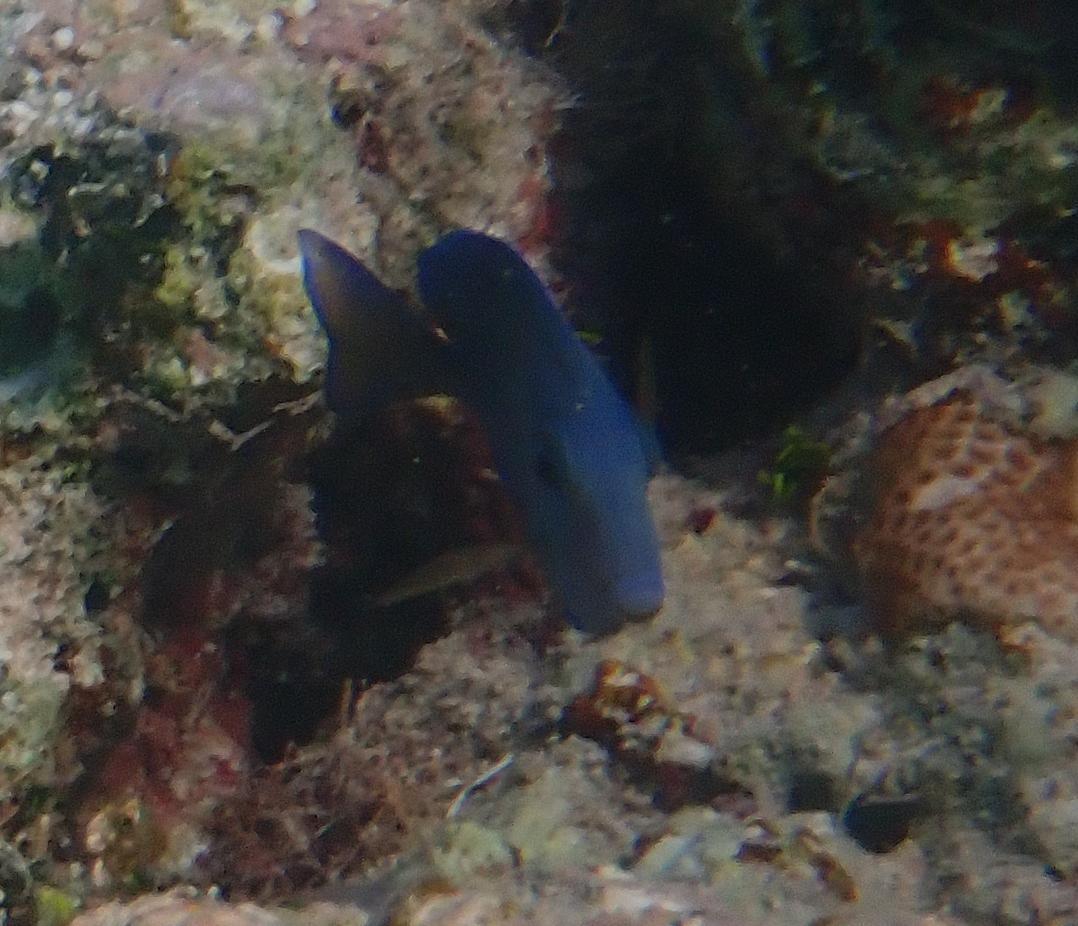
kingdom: Animalia
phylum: Chordata
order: Perciformes
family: Acanthuridae
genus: Acanthurus
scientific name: Acanthurus coeruleus
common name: Blue tang
